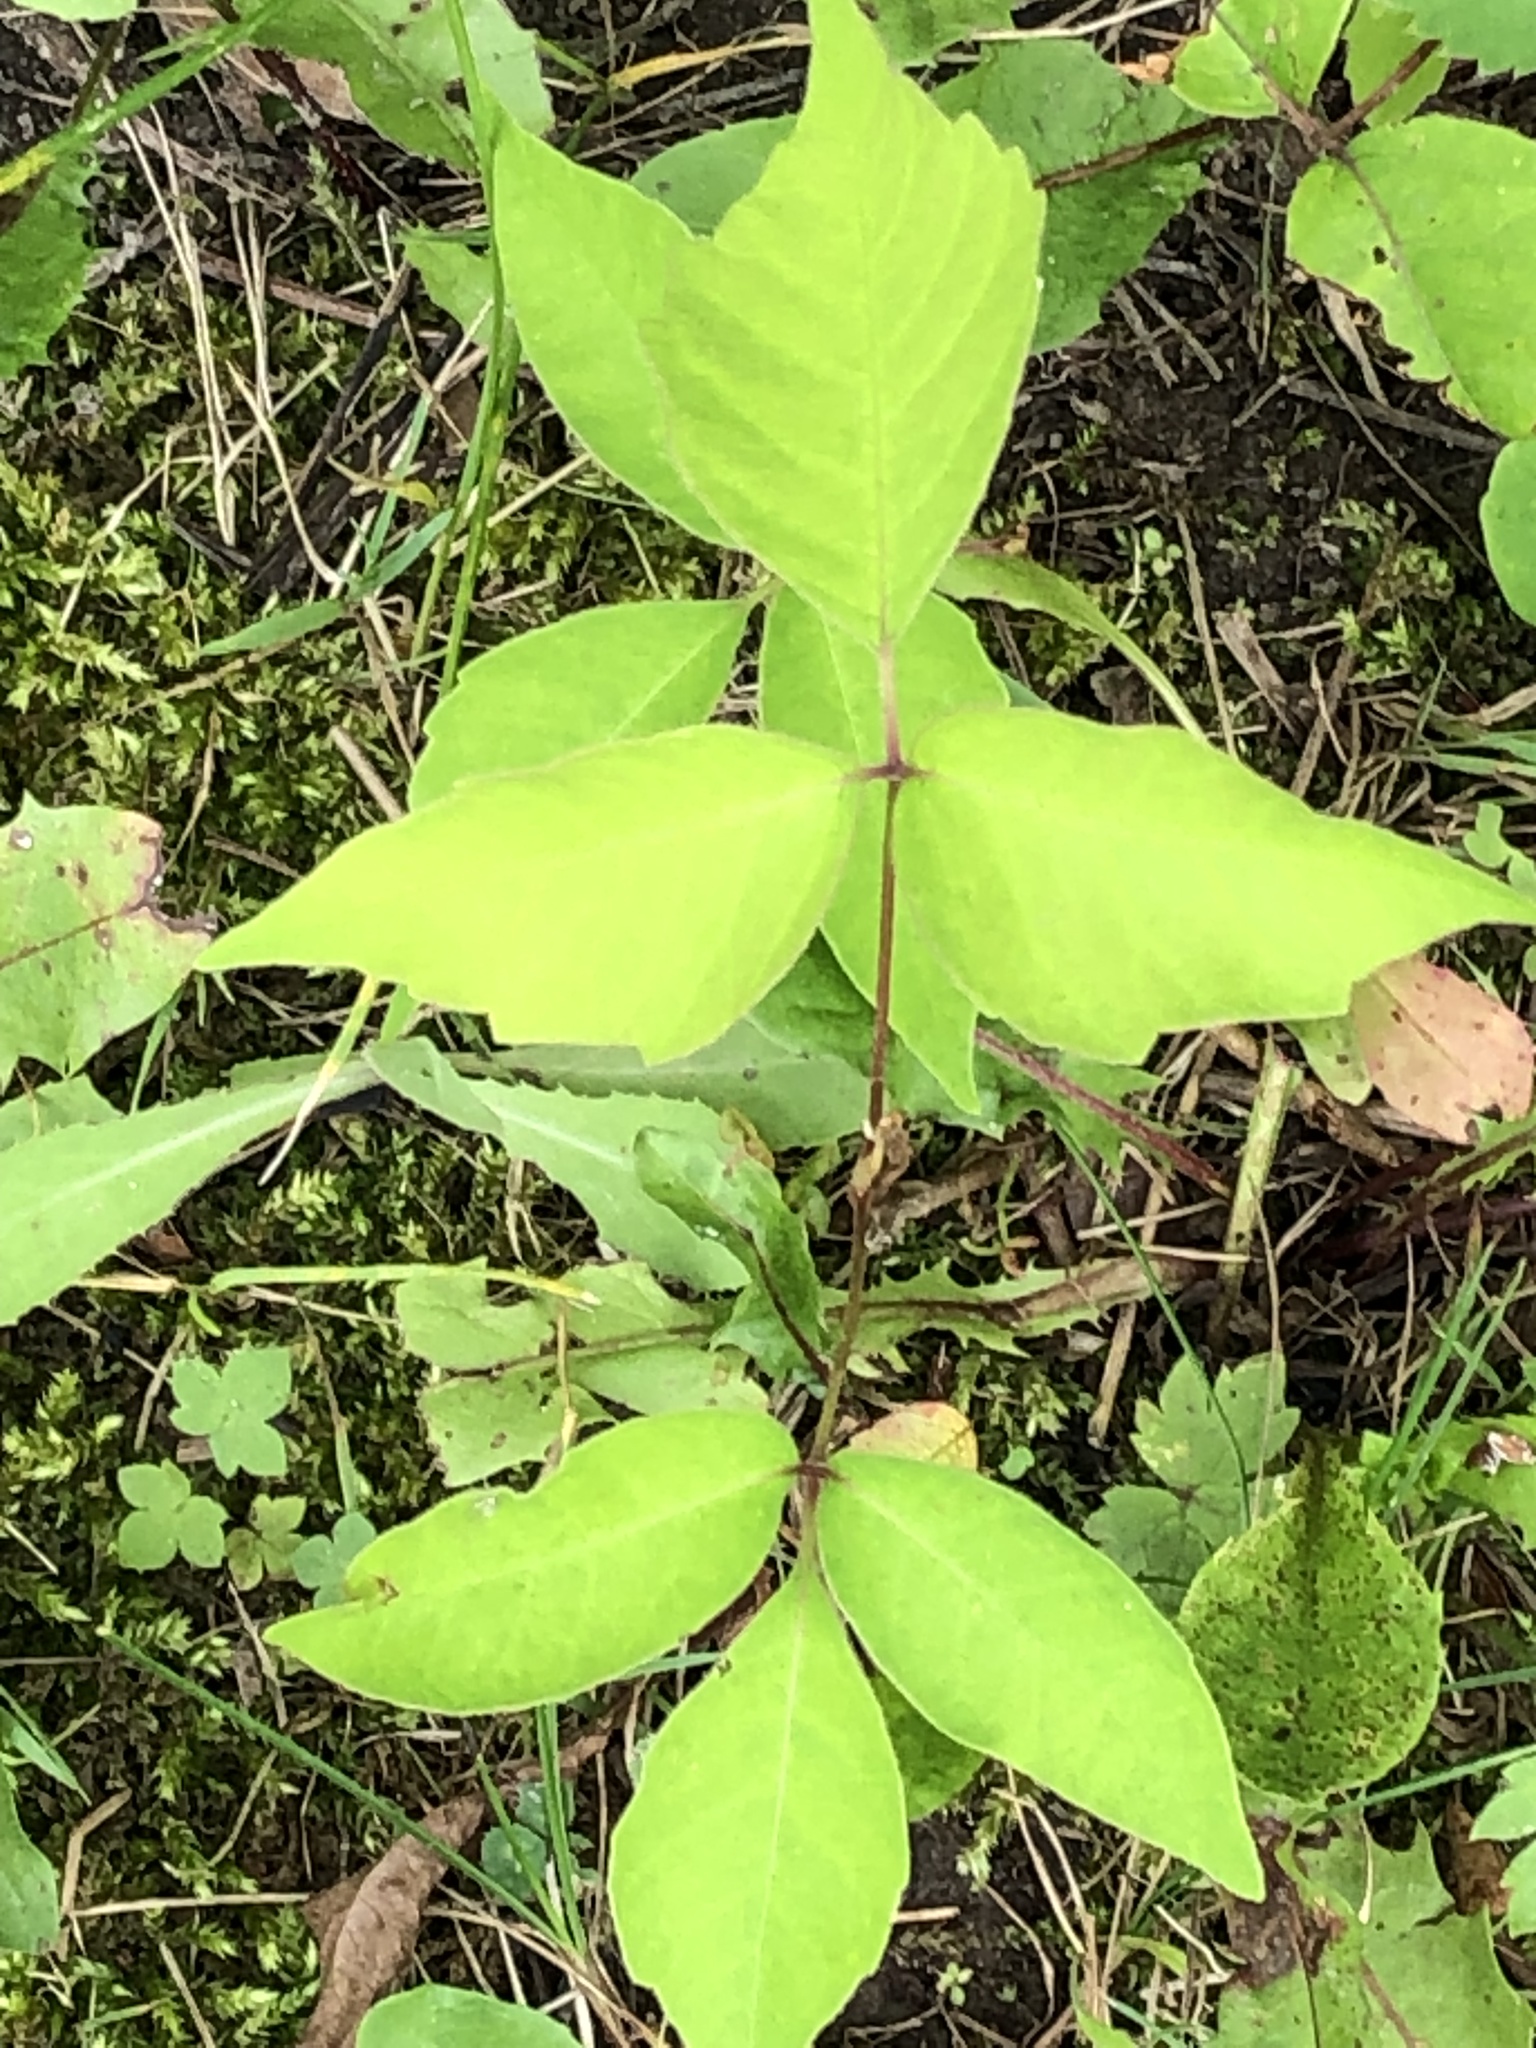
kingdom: Plantae
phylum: Tracheophyta
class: Magnoliopsida
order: Sapindales
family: Anacardiaceae
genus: Toxicodendron
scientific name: Toxicodendron radicans
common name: Poison ivy
